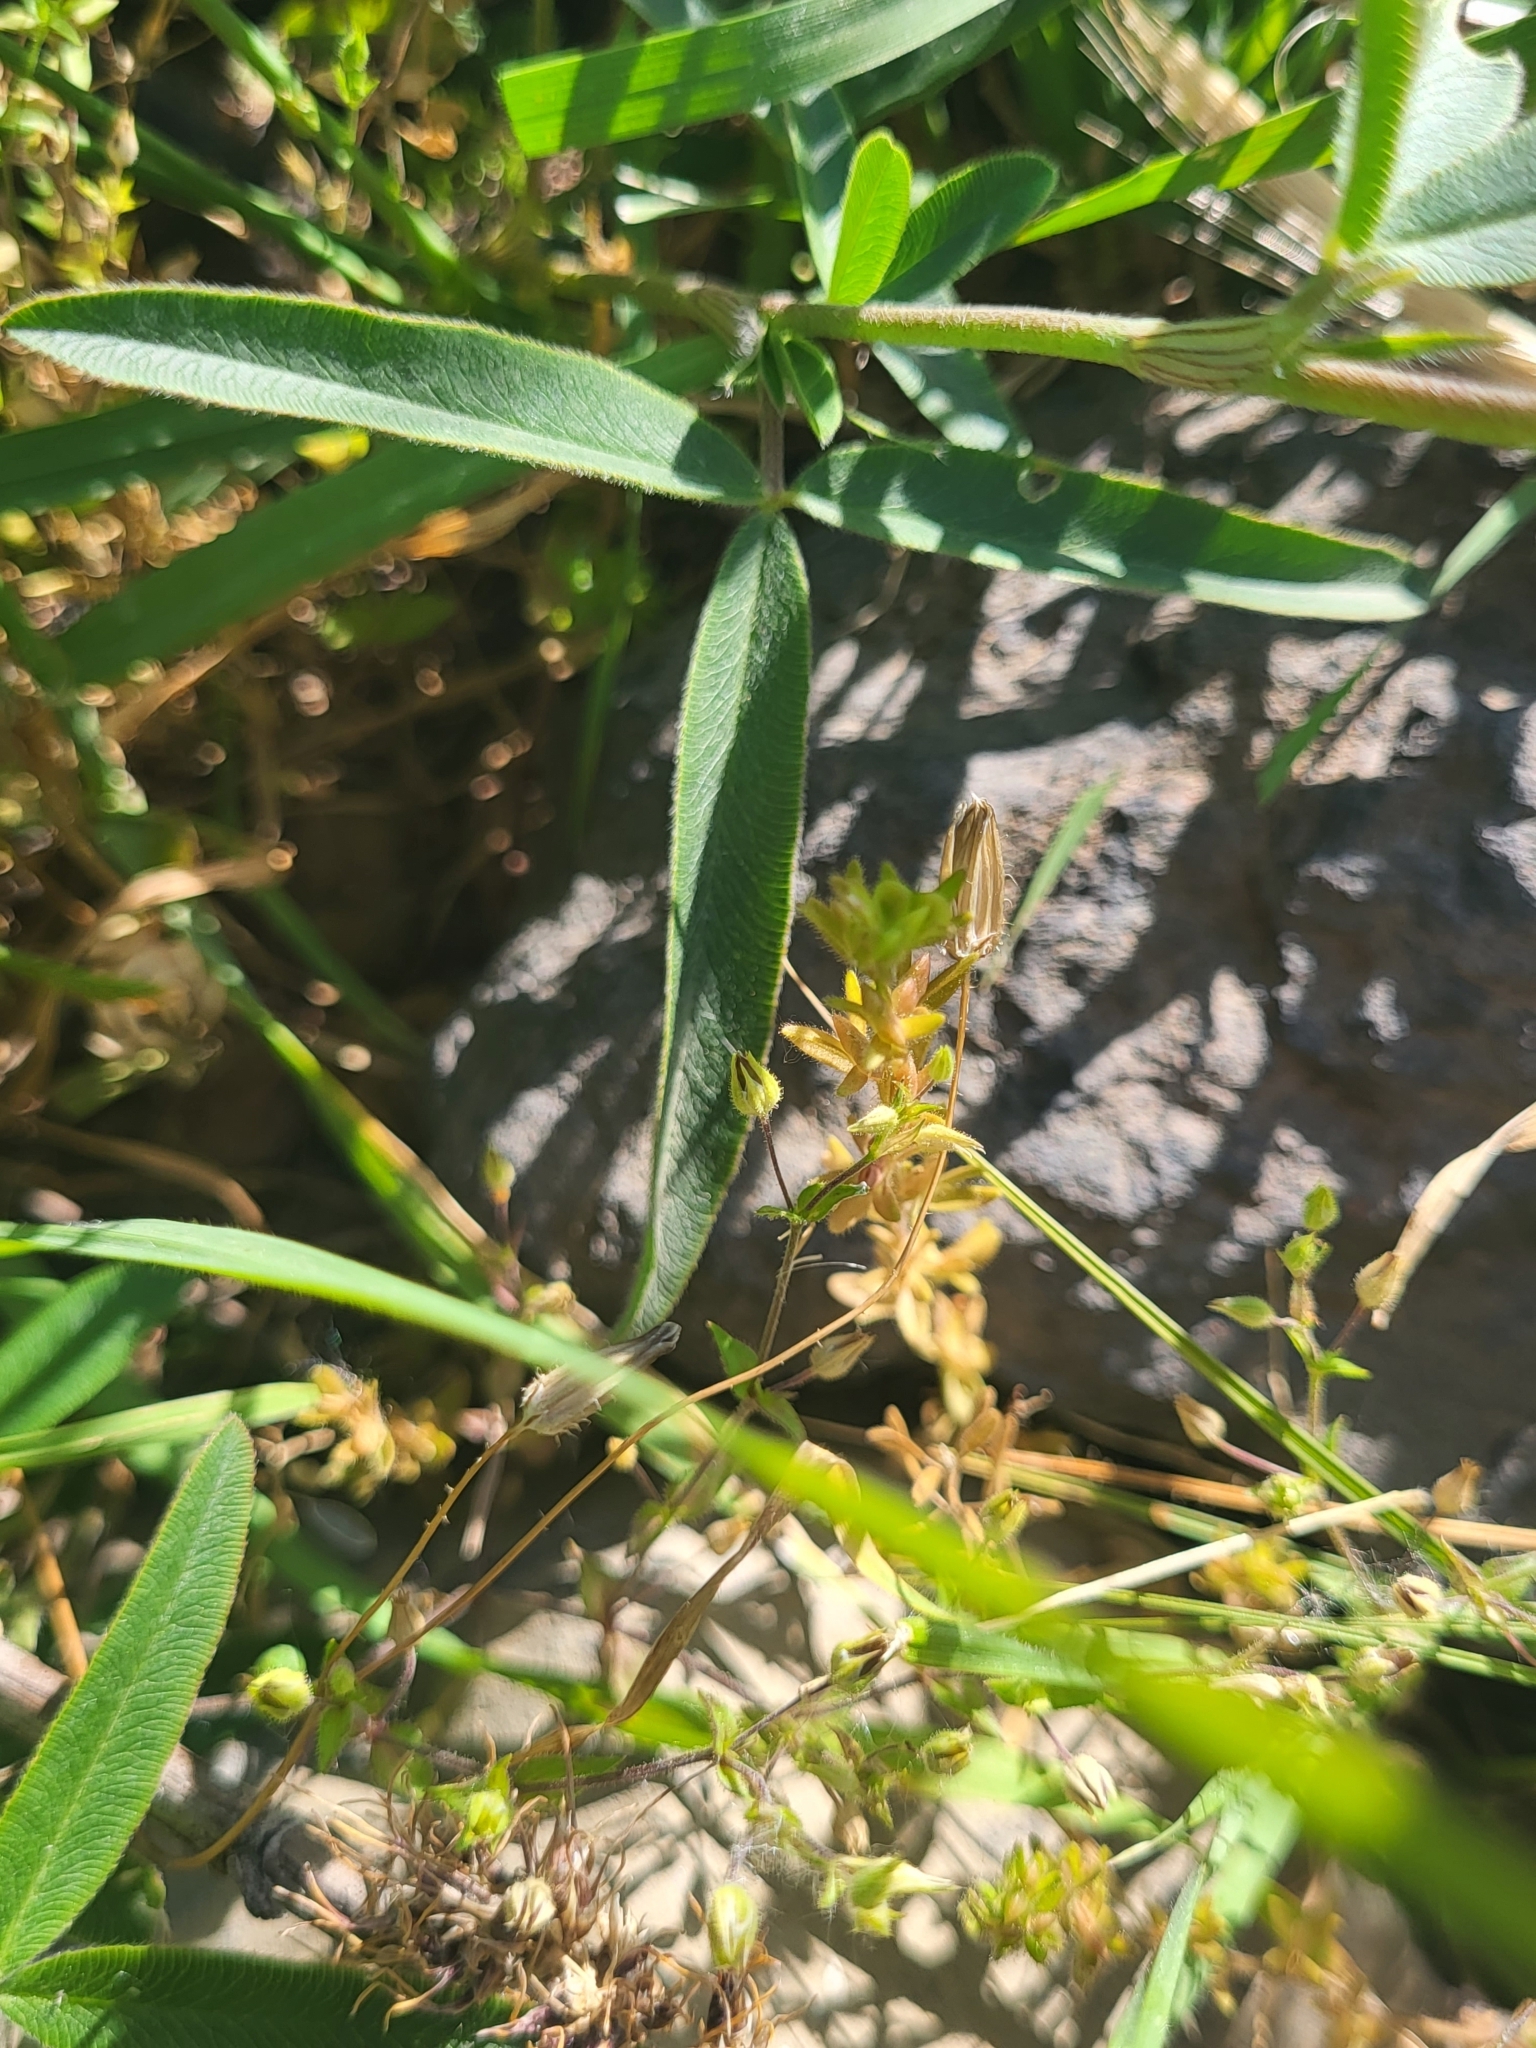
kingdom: Plantae
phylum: Tracheophyta
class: Magnoliopsida
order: Fabales
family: Fabaceae
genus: Trifolium
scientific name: Trifolium alpestre
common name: Owl-head clover
